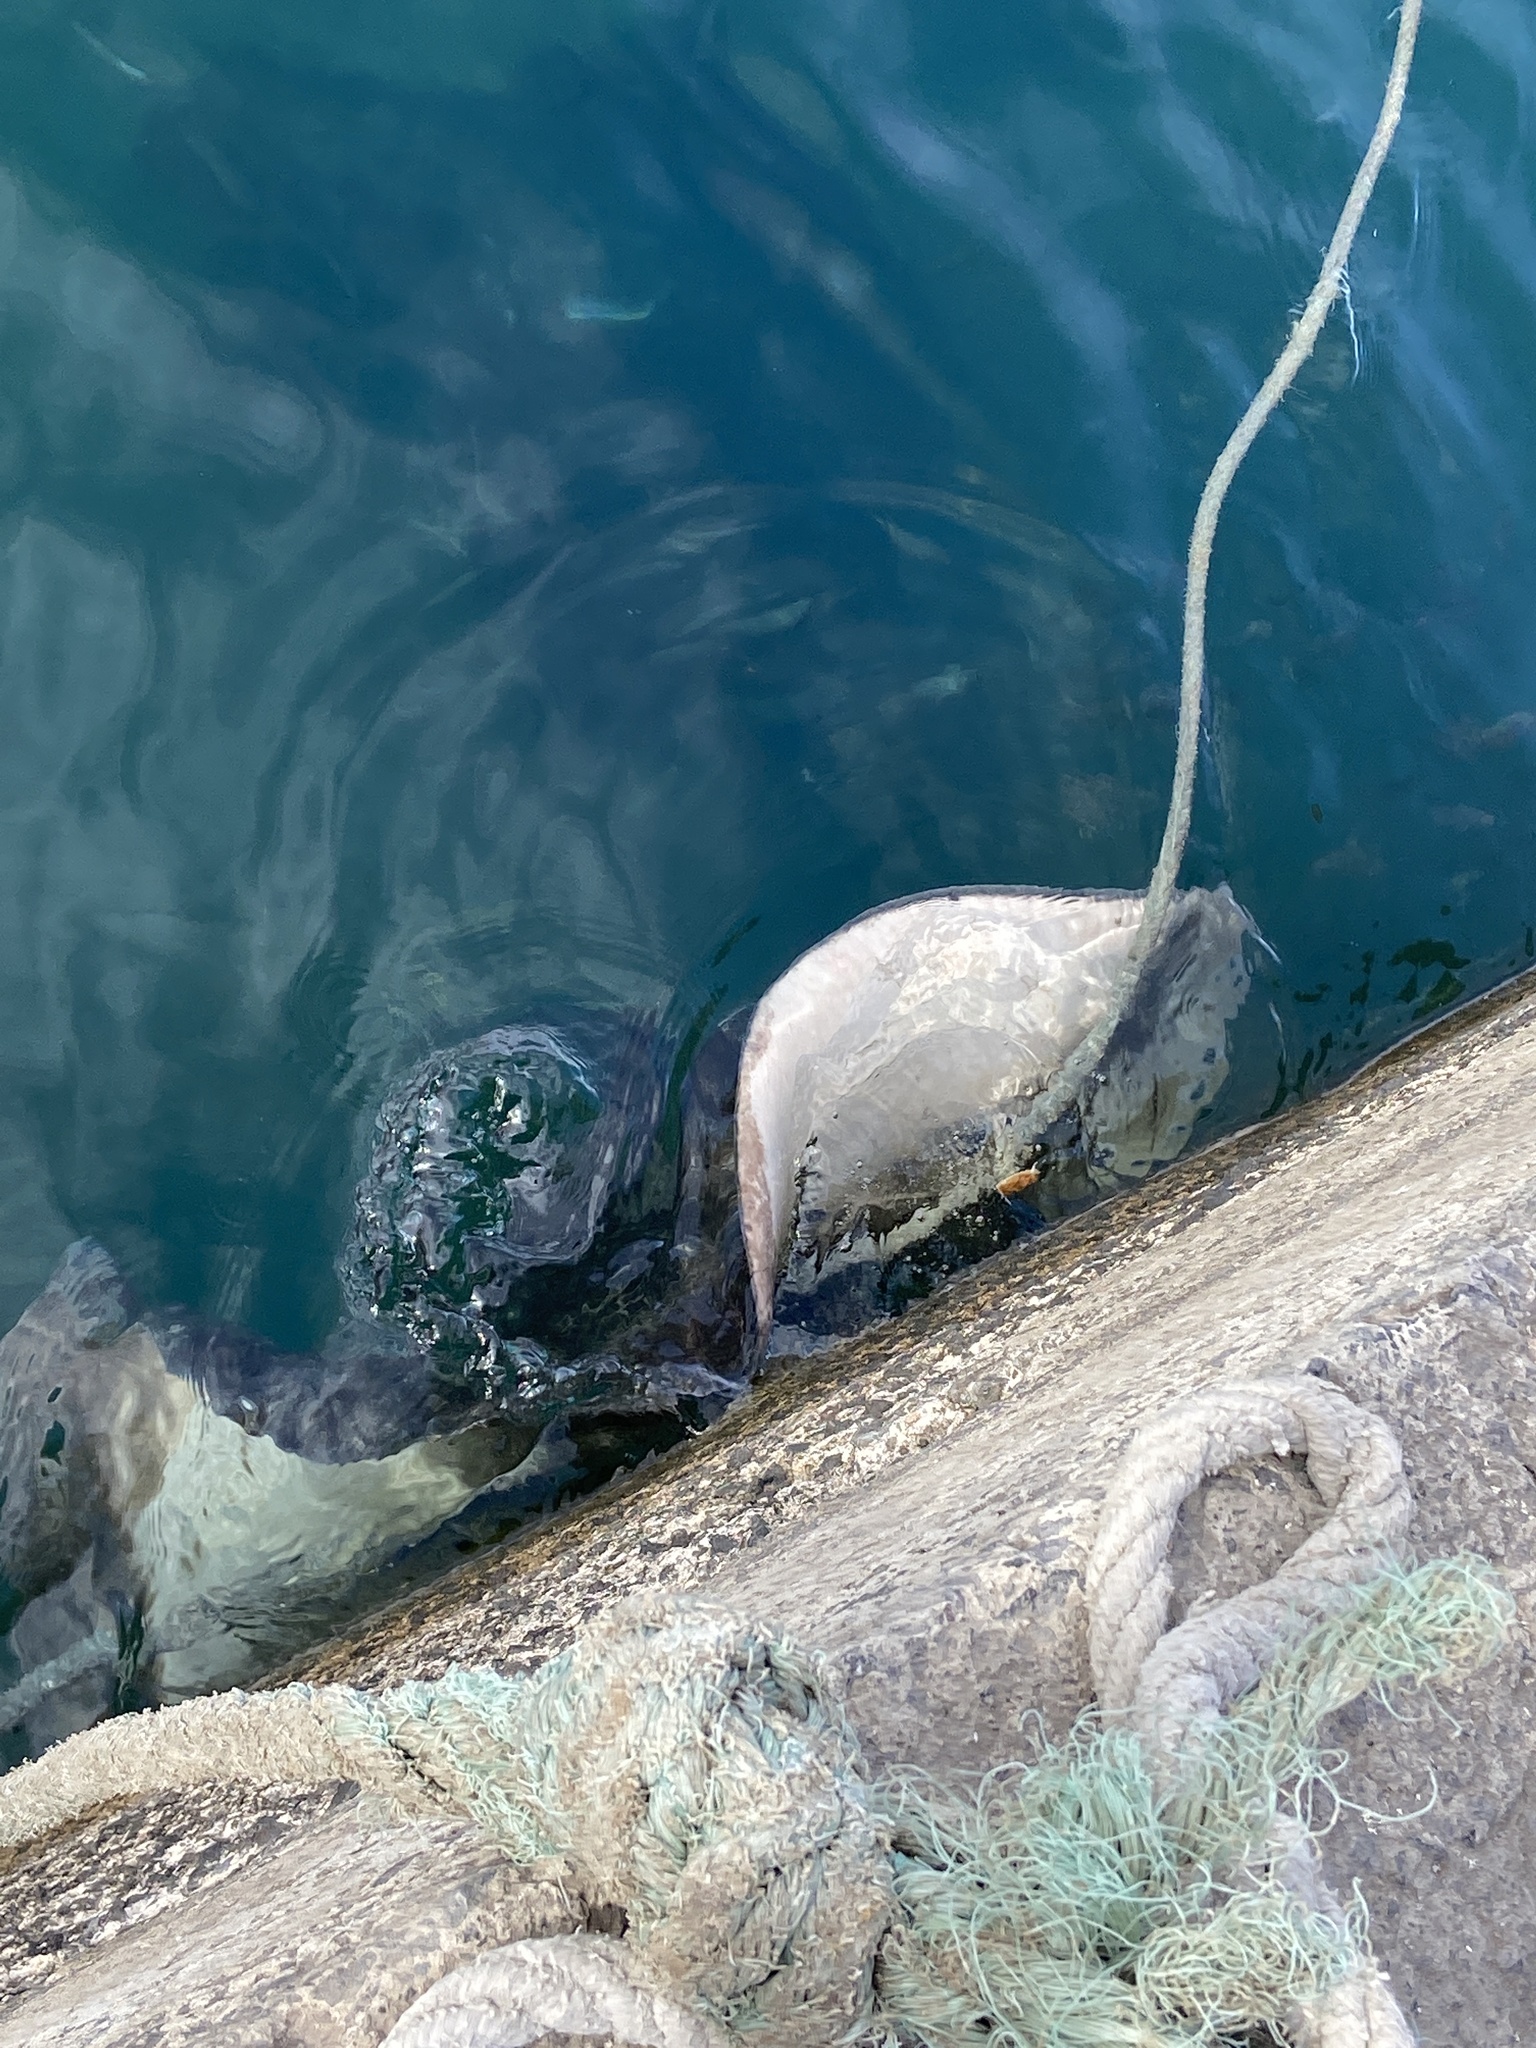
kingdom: Animalia
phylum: Chordata
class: Elasmobranchii
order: Myliobatiformes
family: Dasyatidae
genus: Taeniura
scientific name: Taeniura grabata
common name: Round stingray
